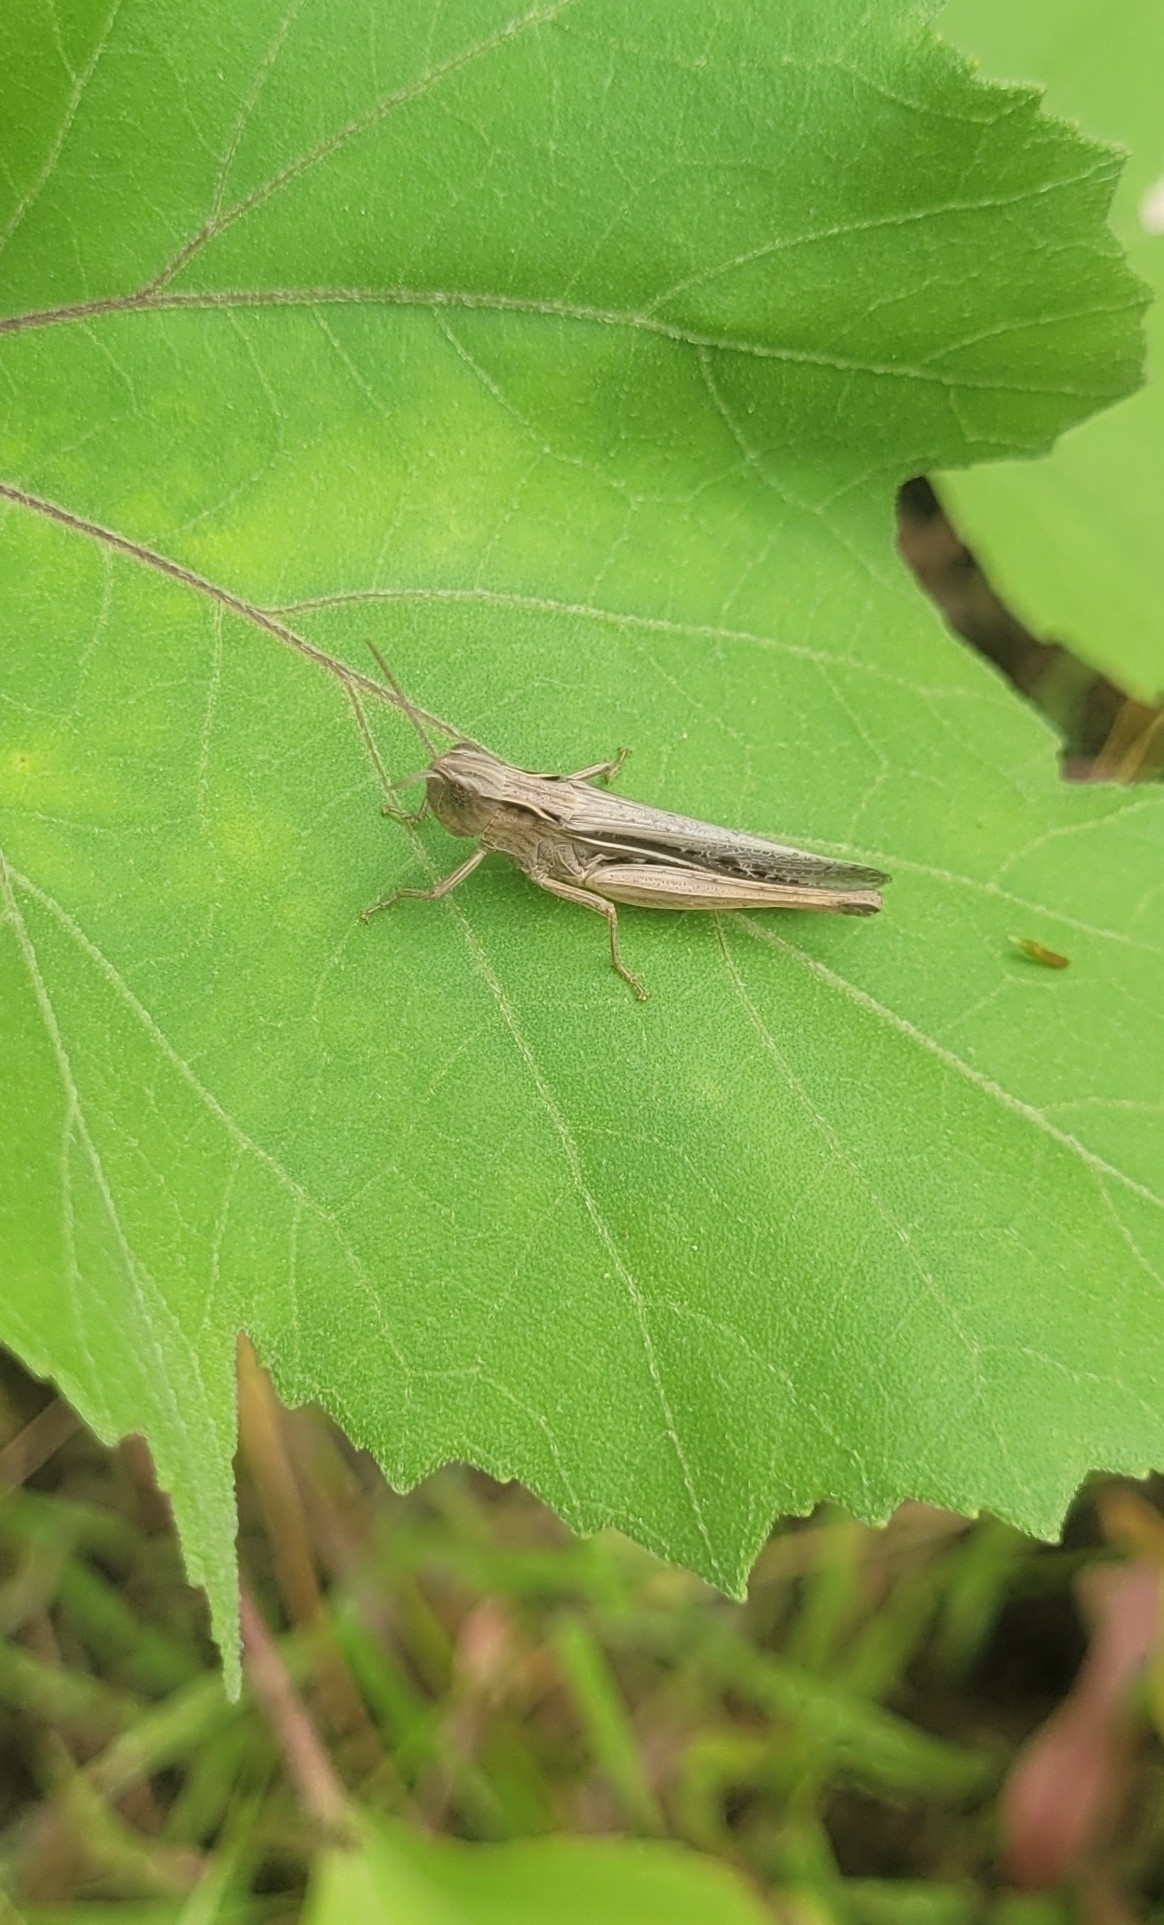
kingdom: Animalia
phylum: Arthropoda
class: Insecta
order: Orthoptera
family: Acrididae
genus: Chorthippus
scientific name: Chorthippus loratus
